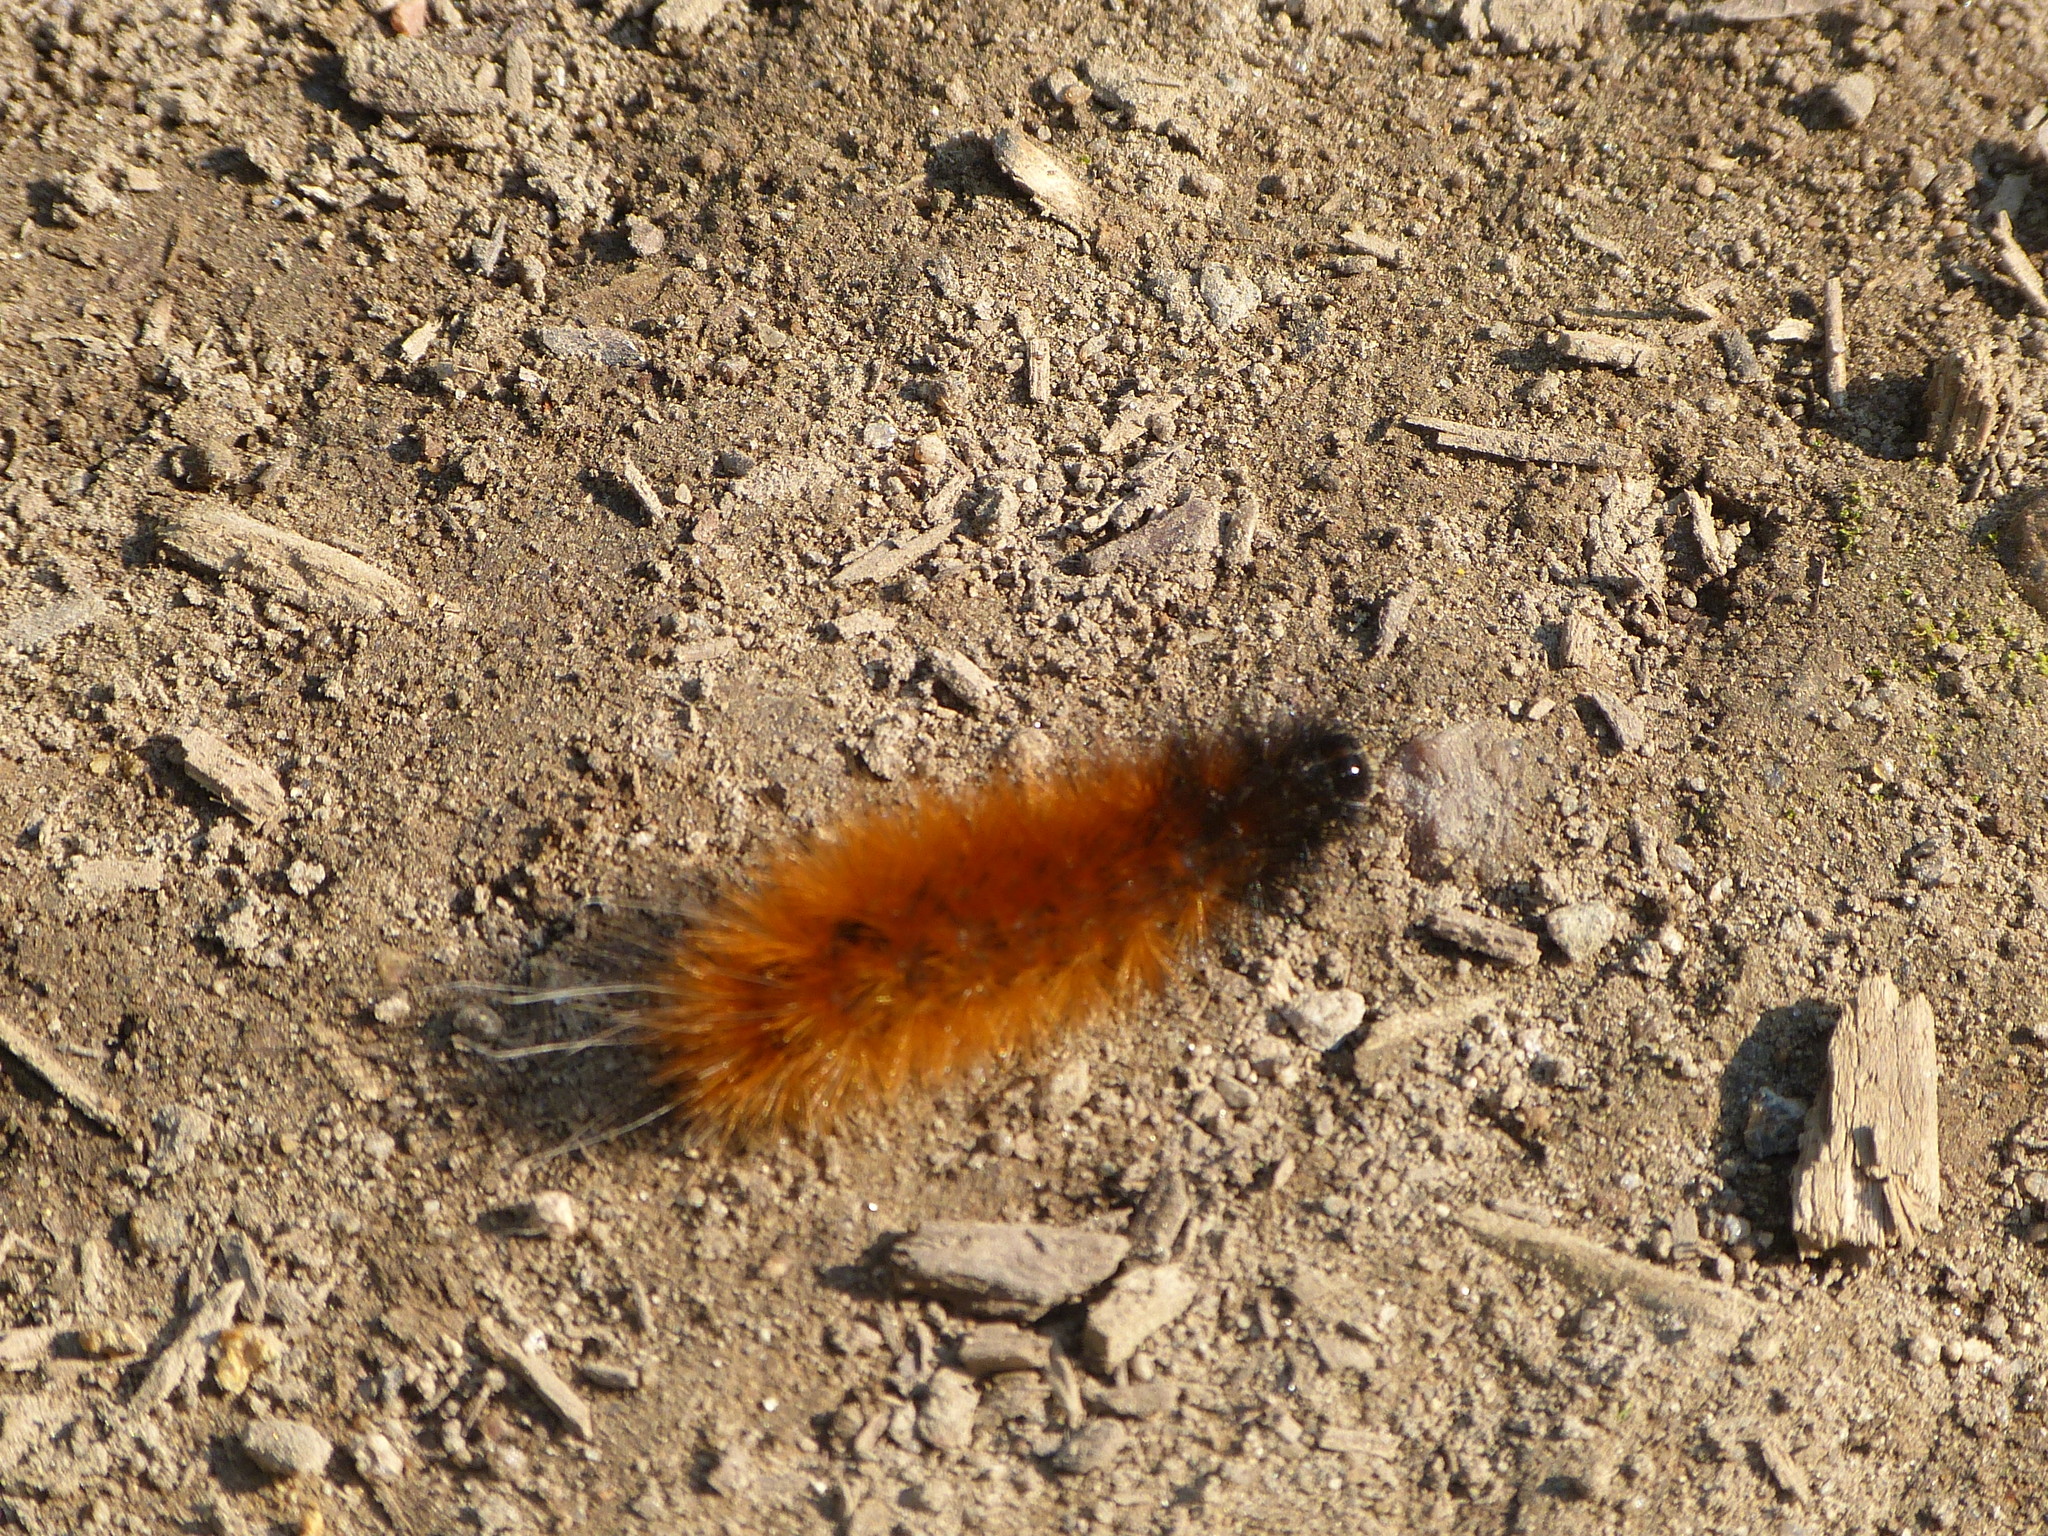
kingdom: Animalia
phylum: Arthropoda
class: Insecta
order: Lepidoptera
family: Erebidae
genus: Spilosoma
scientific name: Spilosoma virginica
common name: Virginia tiger moth
